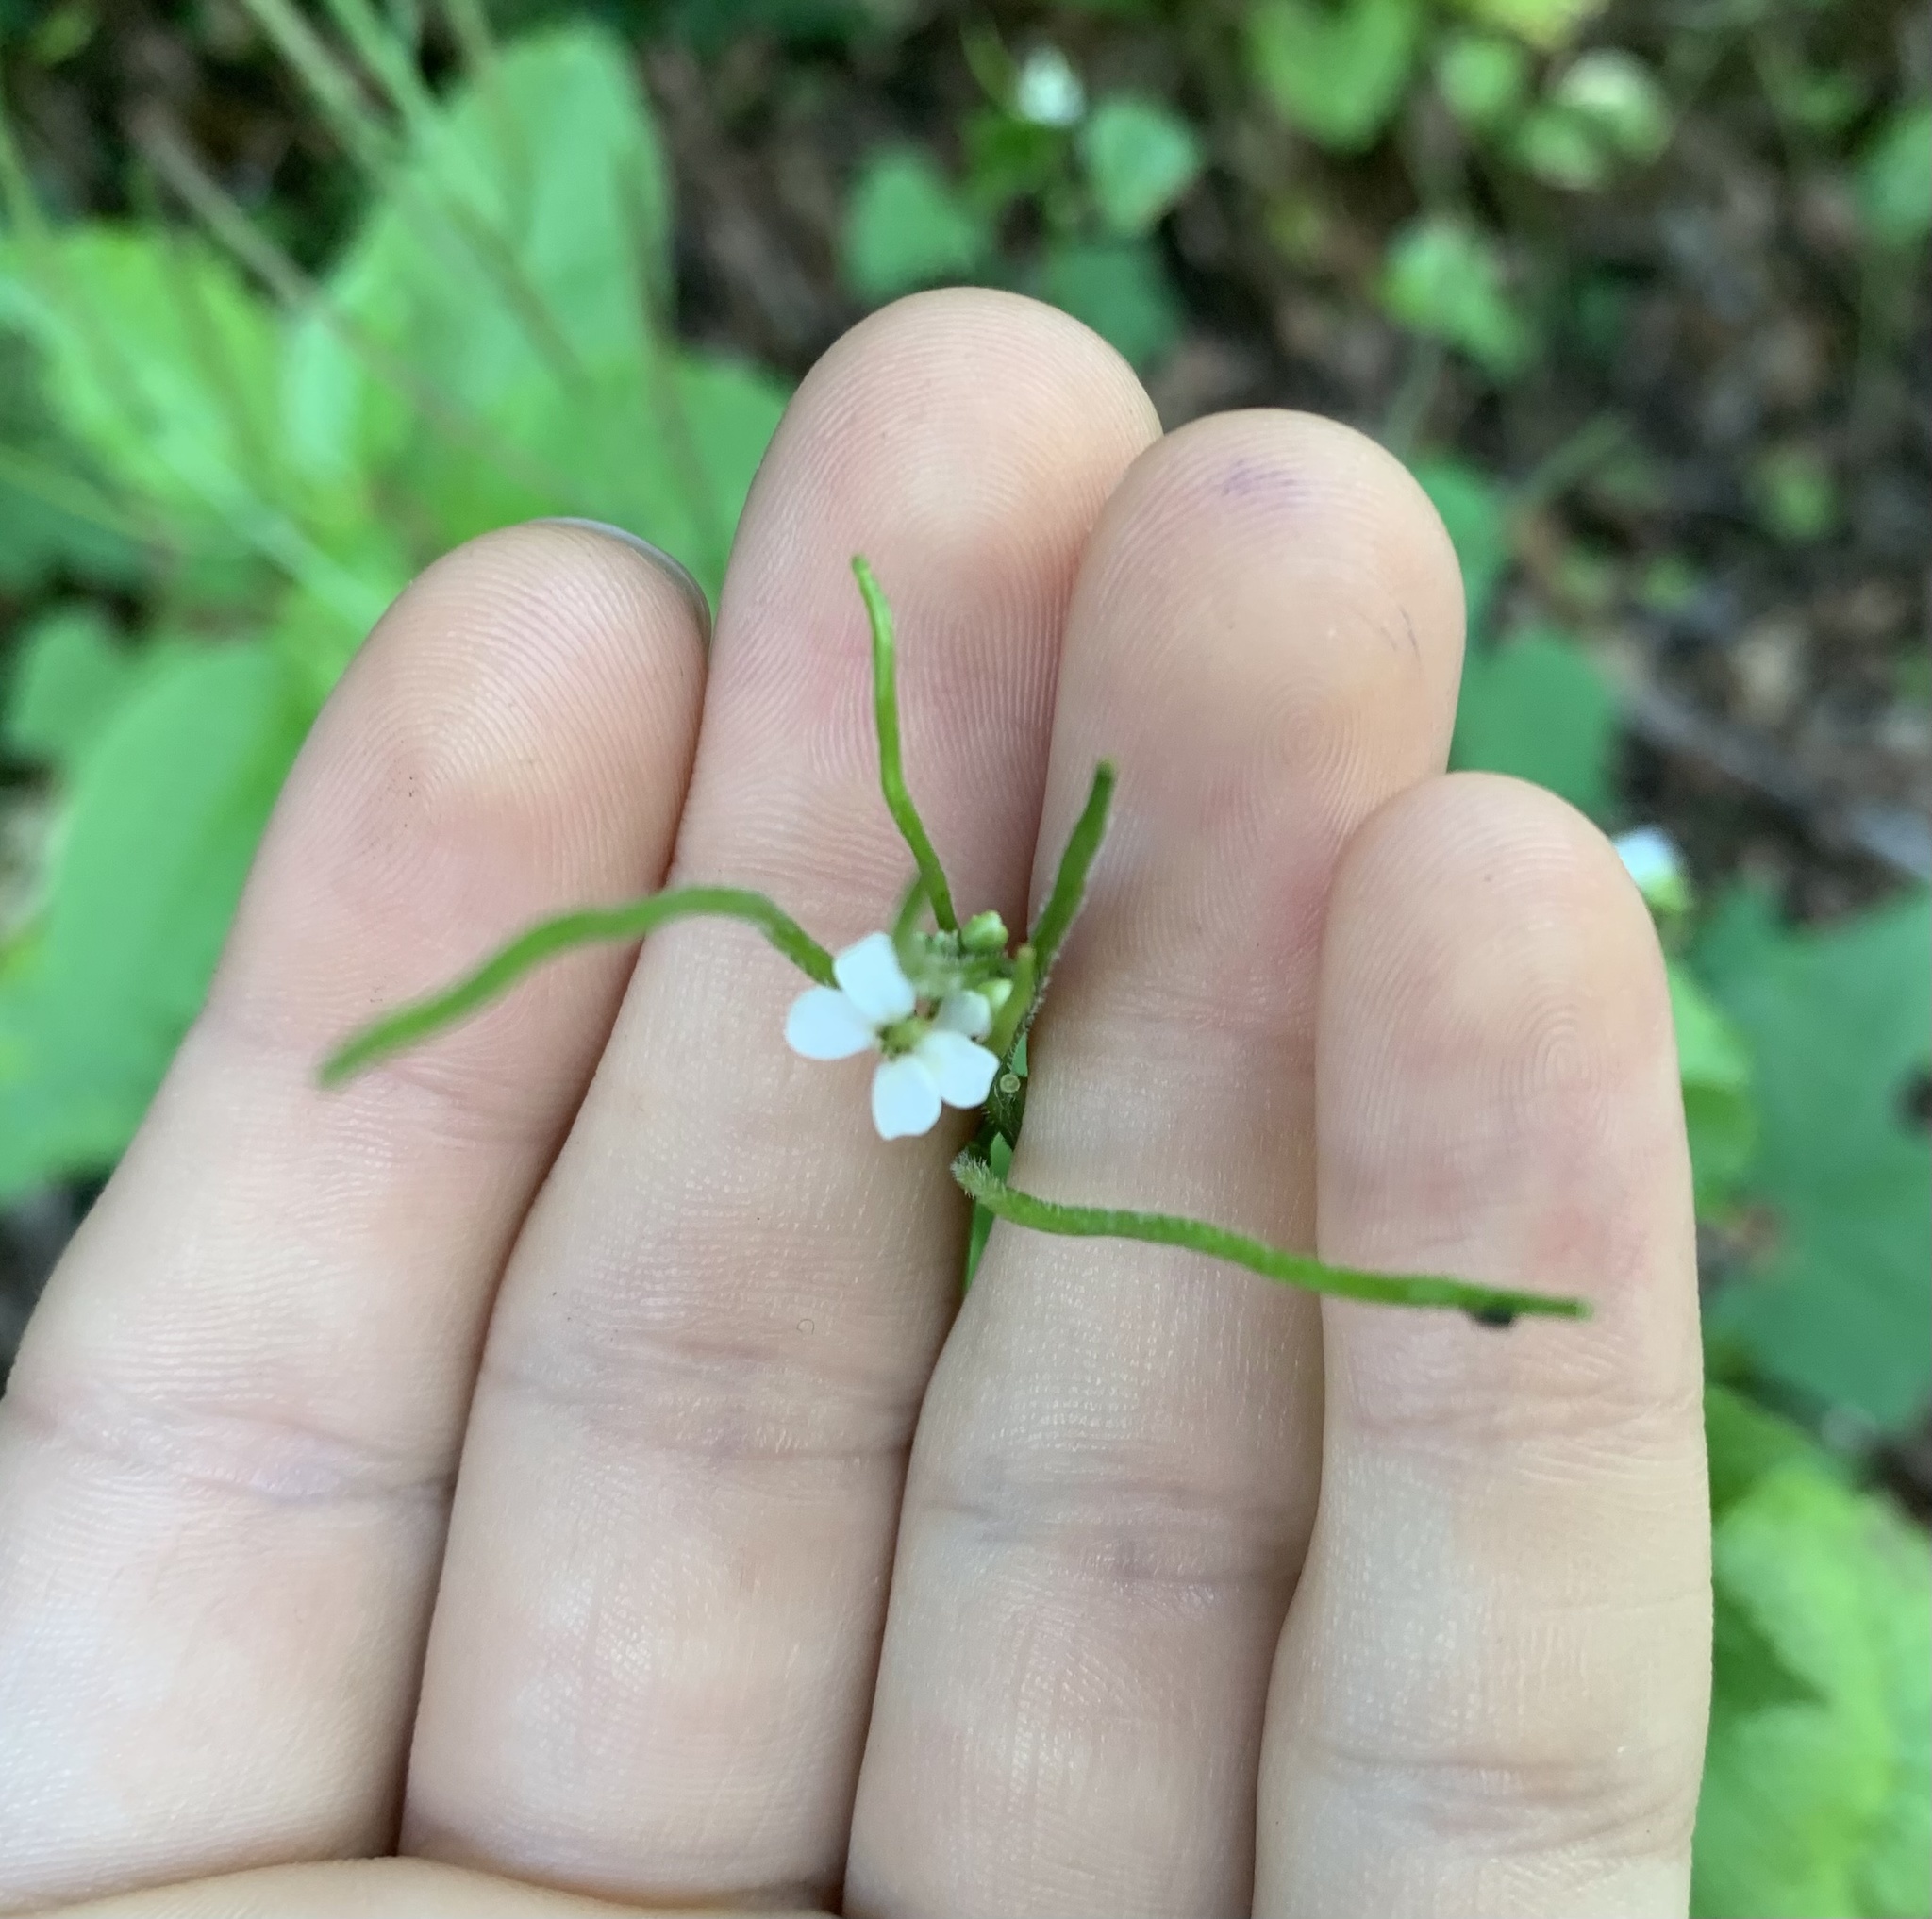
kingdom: Plantae
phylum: Tracheophyta
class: Magnoliopsida
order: Brassicales
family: Brassicaceae
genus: Alliaria
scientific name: Alliaria petiolata
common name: Garlic mustard
